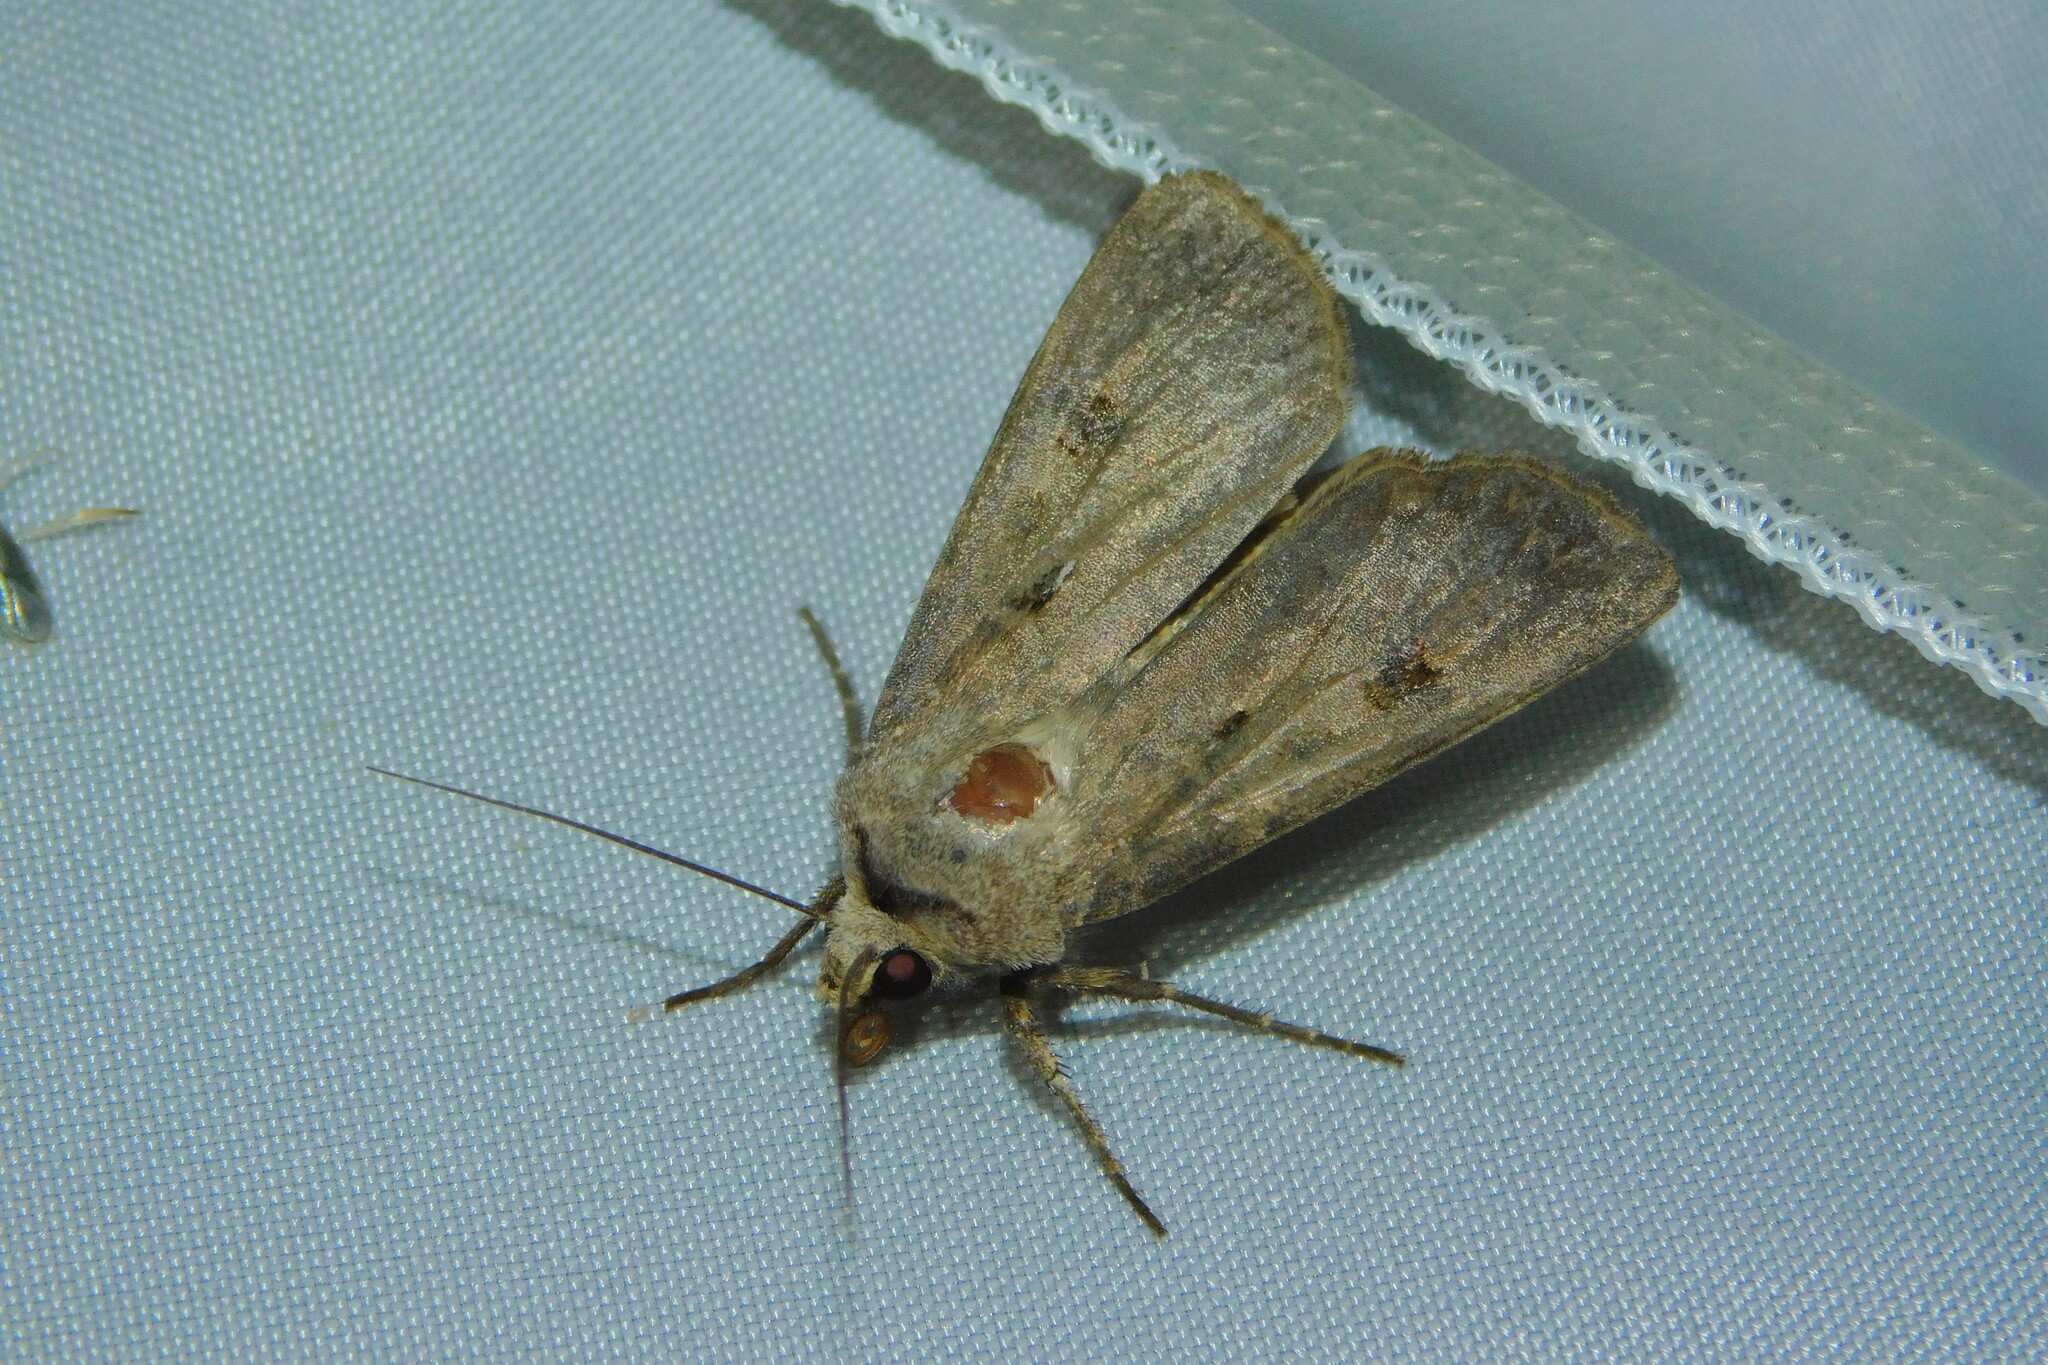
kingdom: Animalia
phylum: Arthropoda
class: Insecta
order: Lepidoptera
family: Noctuidae
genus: Agrotis
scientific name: Agrotis exclamationis
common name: Heart and dart
